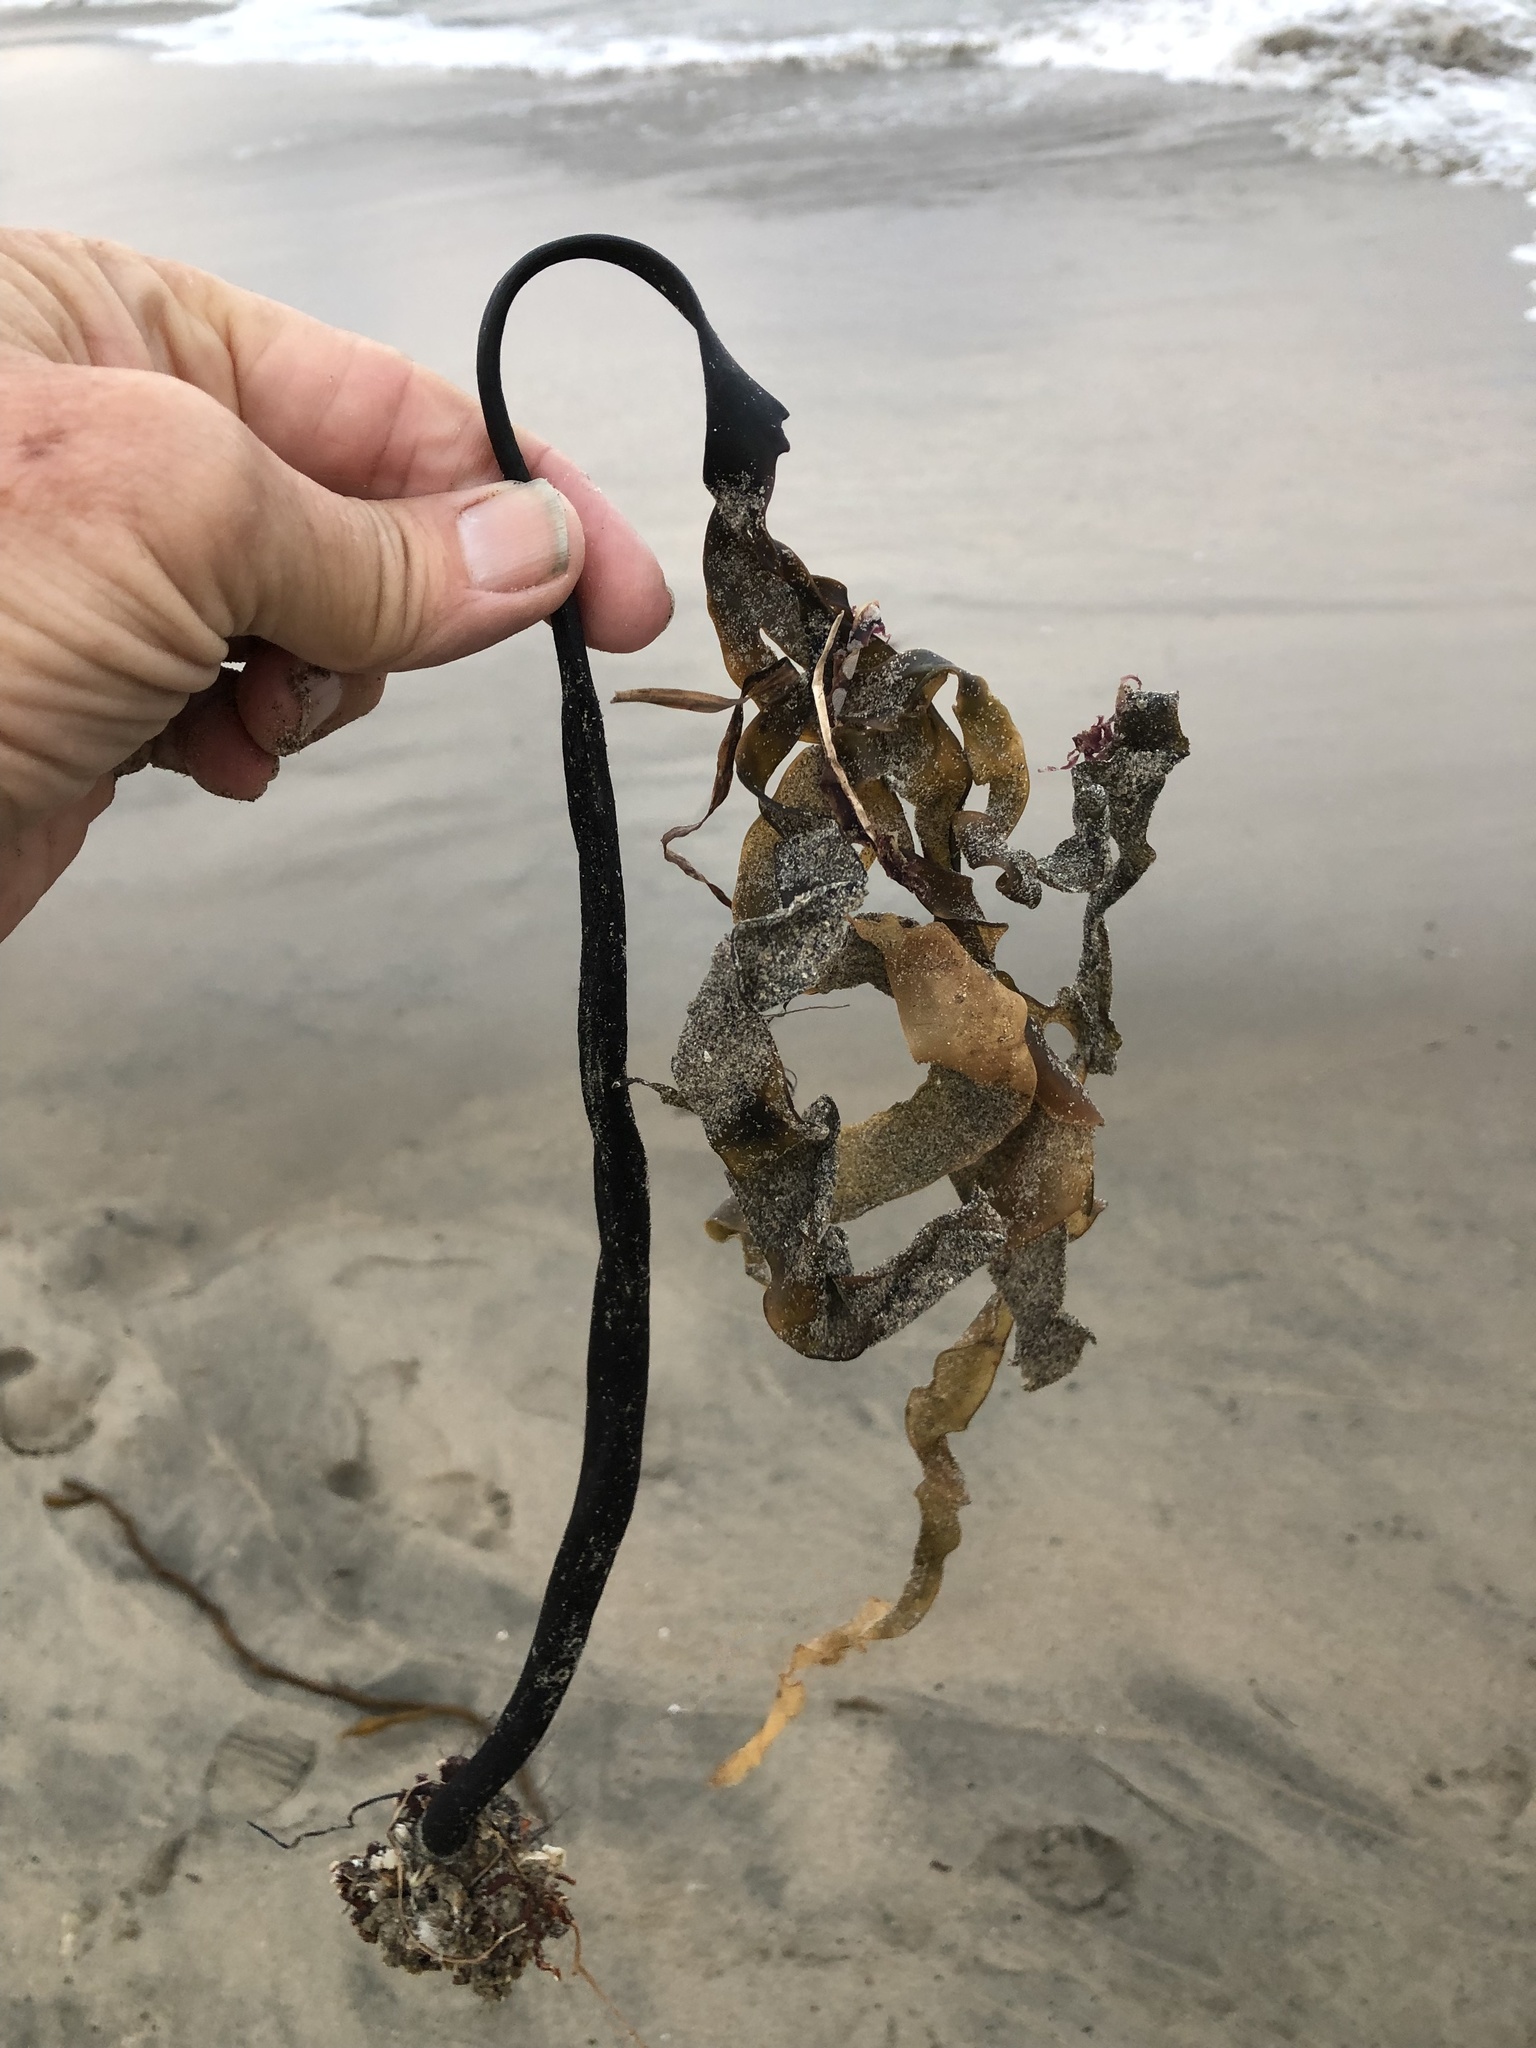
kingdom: Chromista
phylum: Ochrophyta
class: Phaeophyceae
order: Laminariales
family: Laminariaceae
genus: Laminaria
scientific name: Laminaria setchellii
